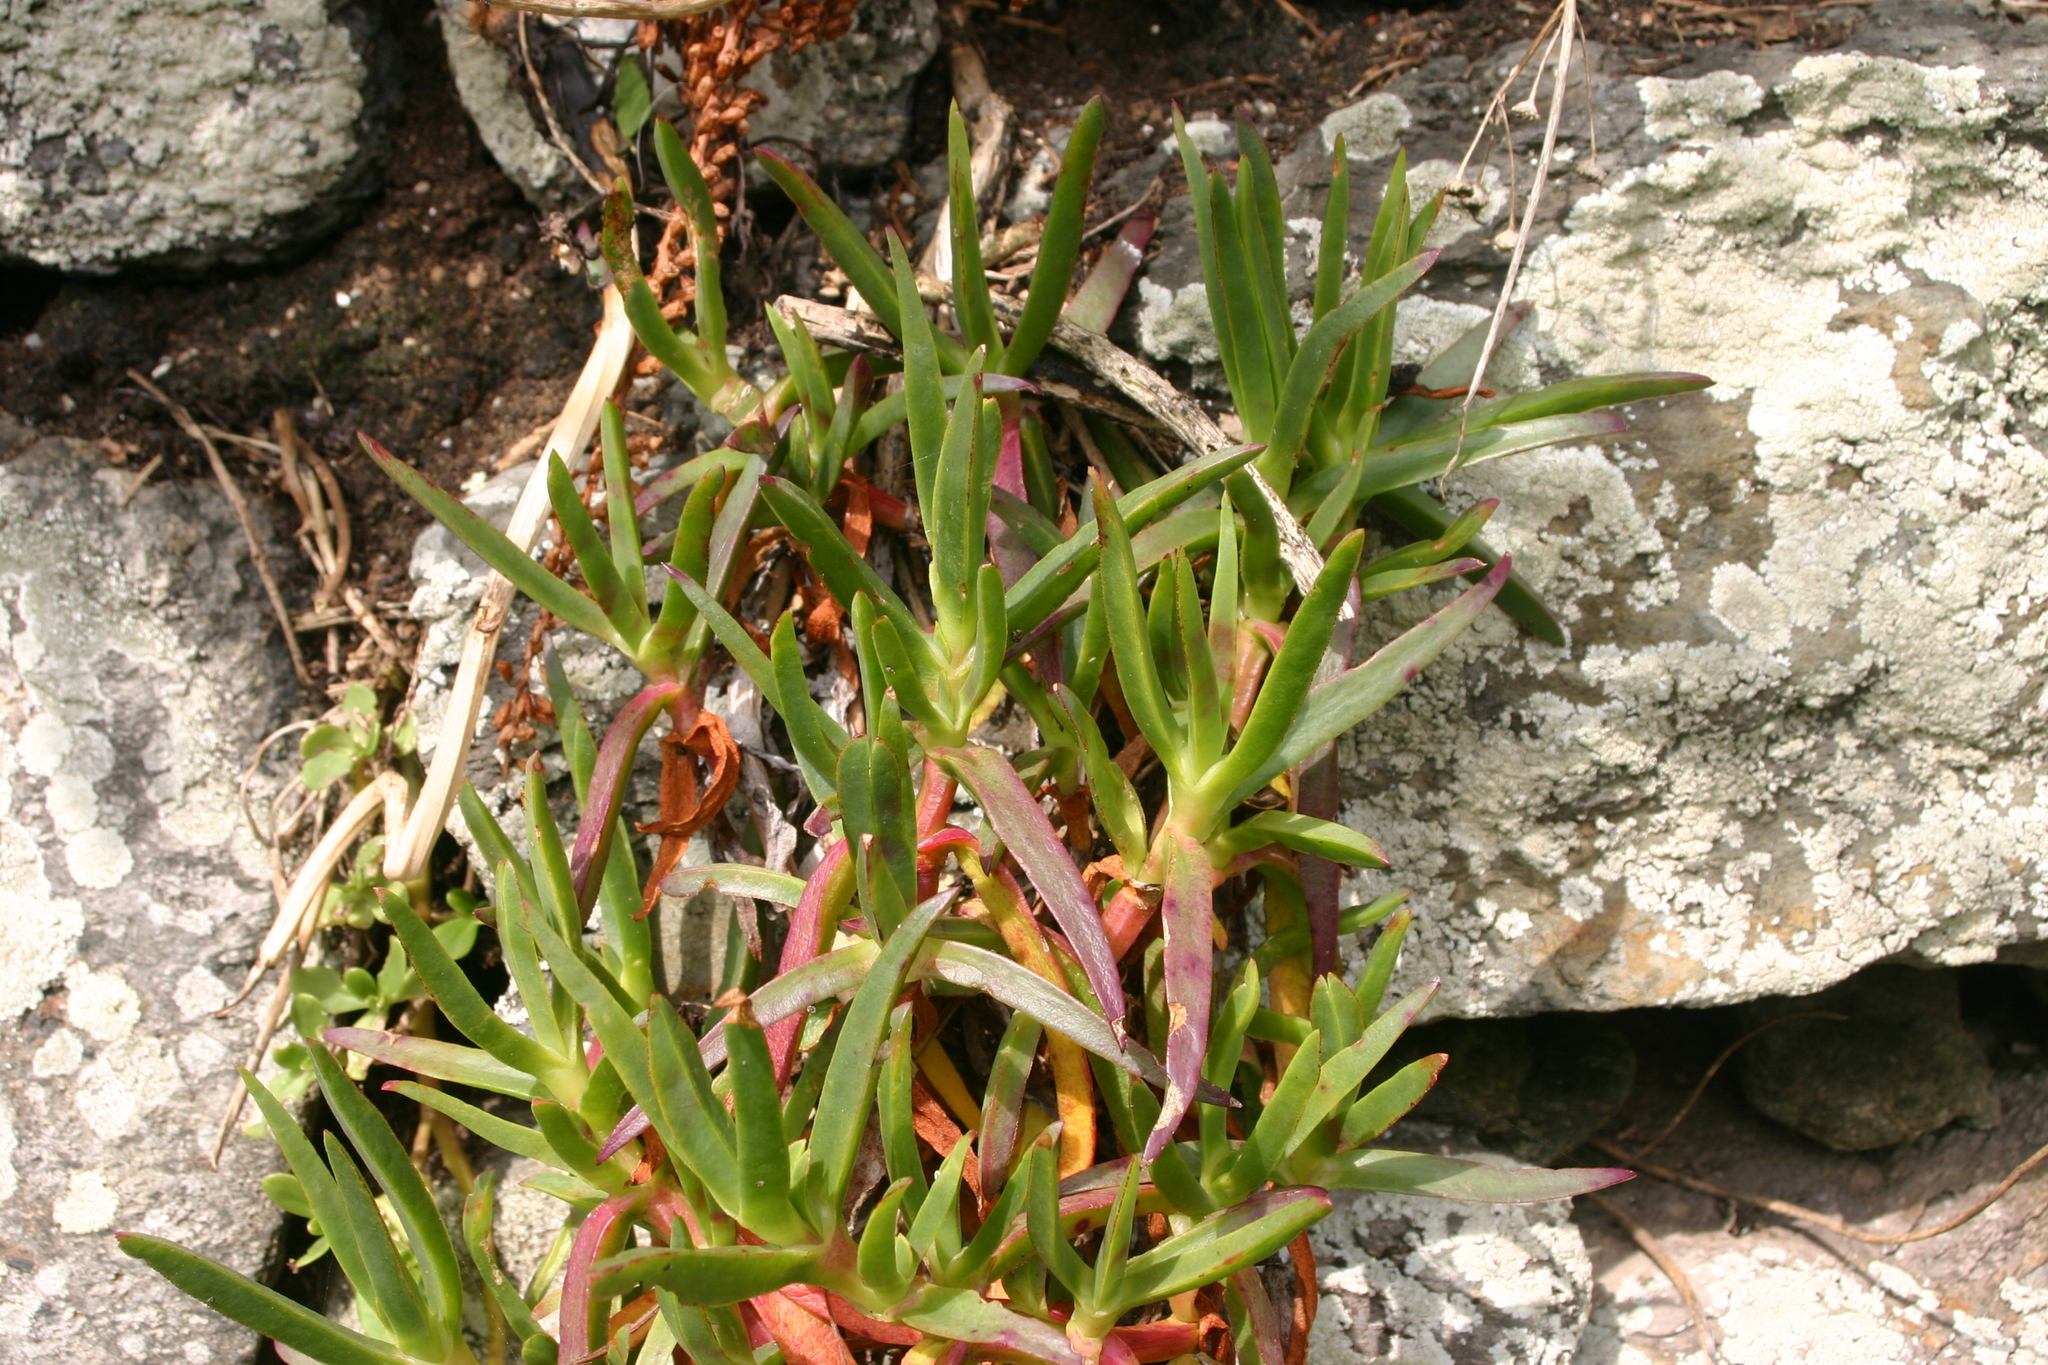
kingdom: Plantae
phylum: Tracheophyta
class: Magnoliopsida
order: Caryophyllales
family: Aizoaceae
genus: Carpobrotus
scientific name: Carpobrotus edulis
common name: Hottentot-fig
